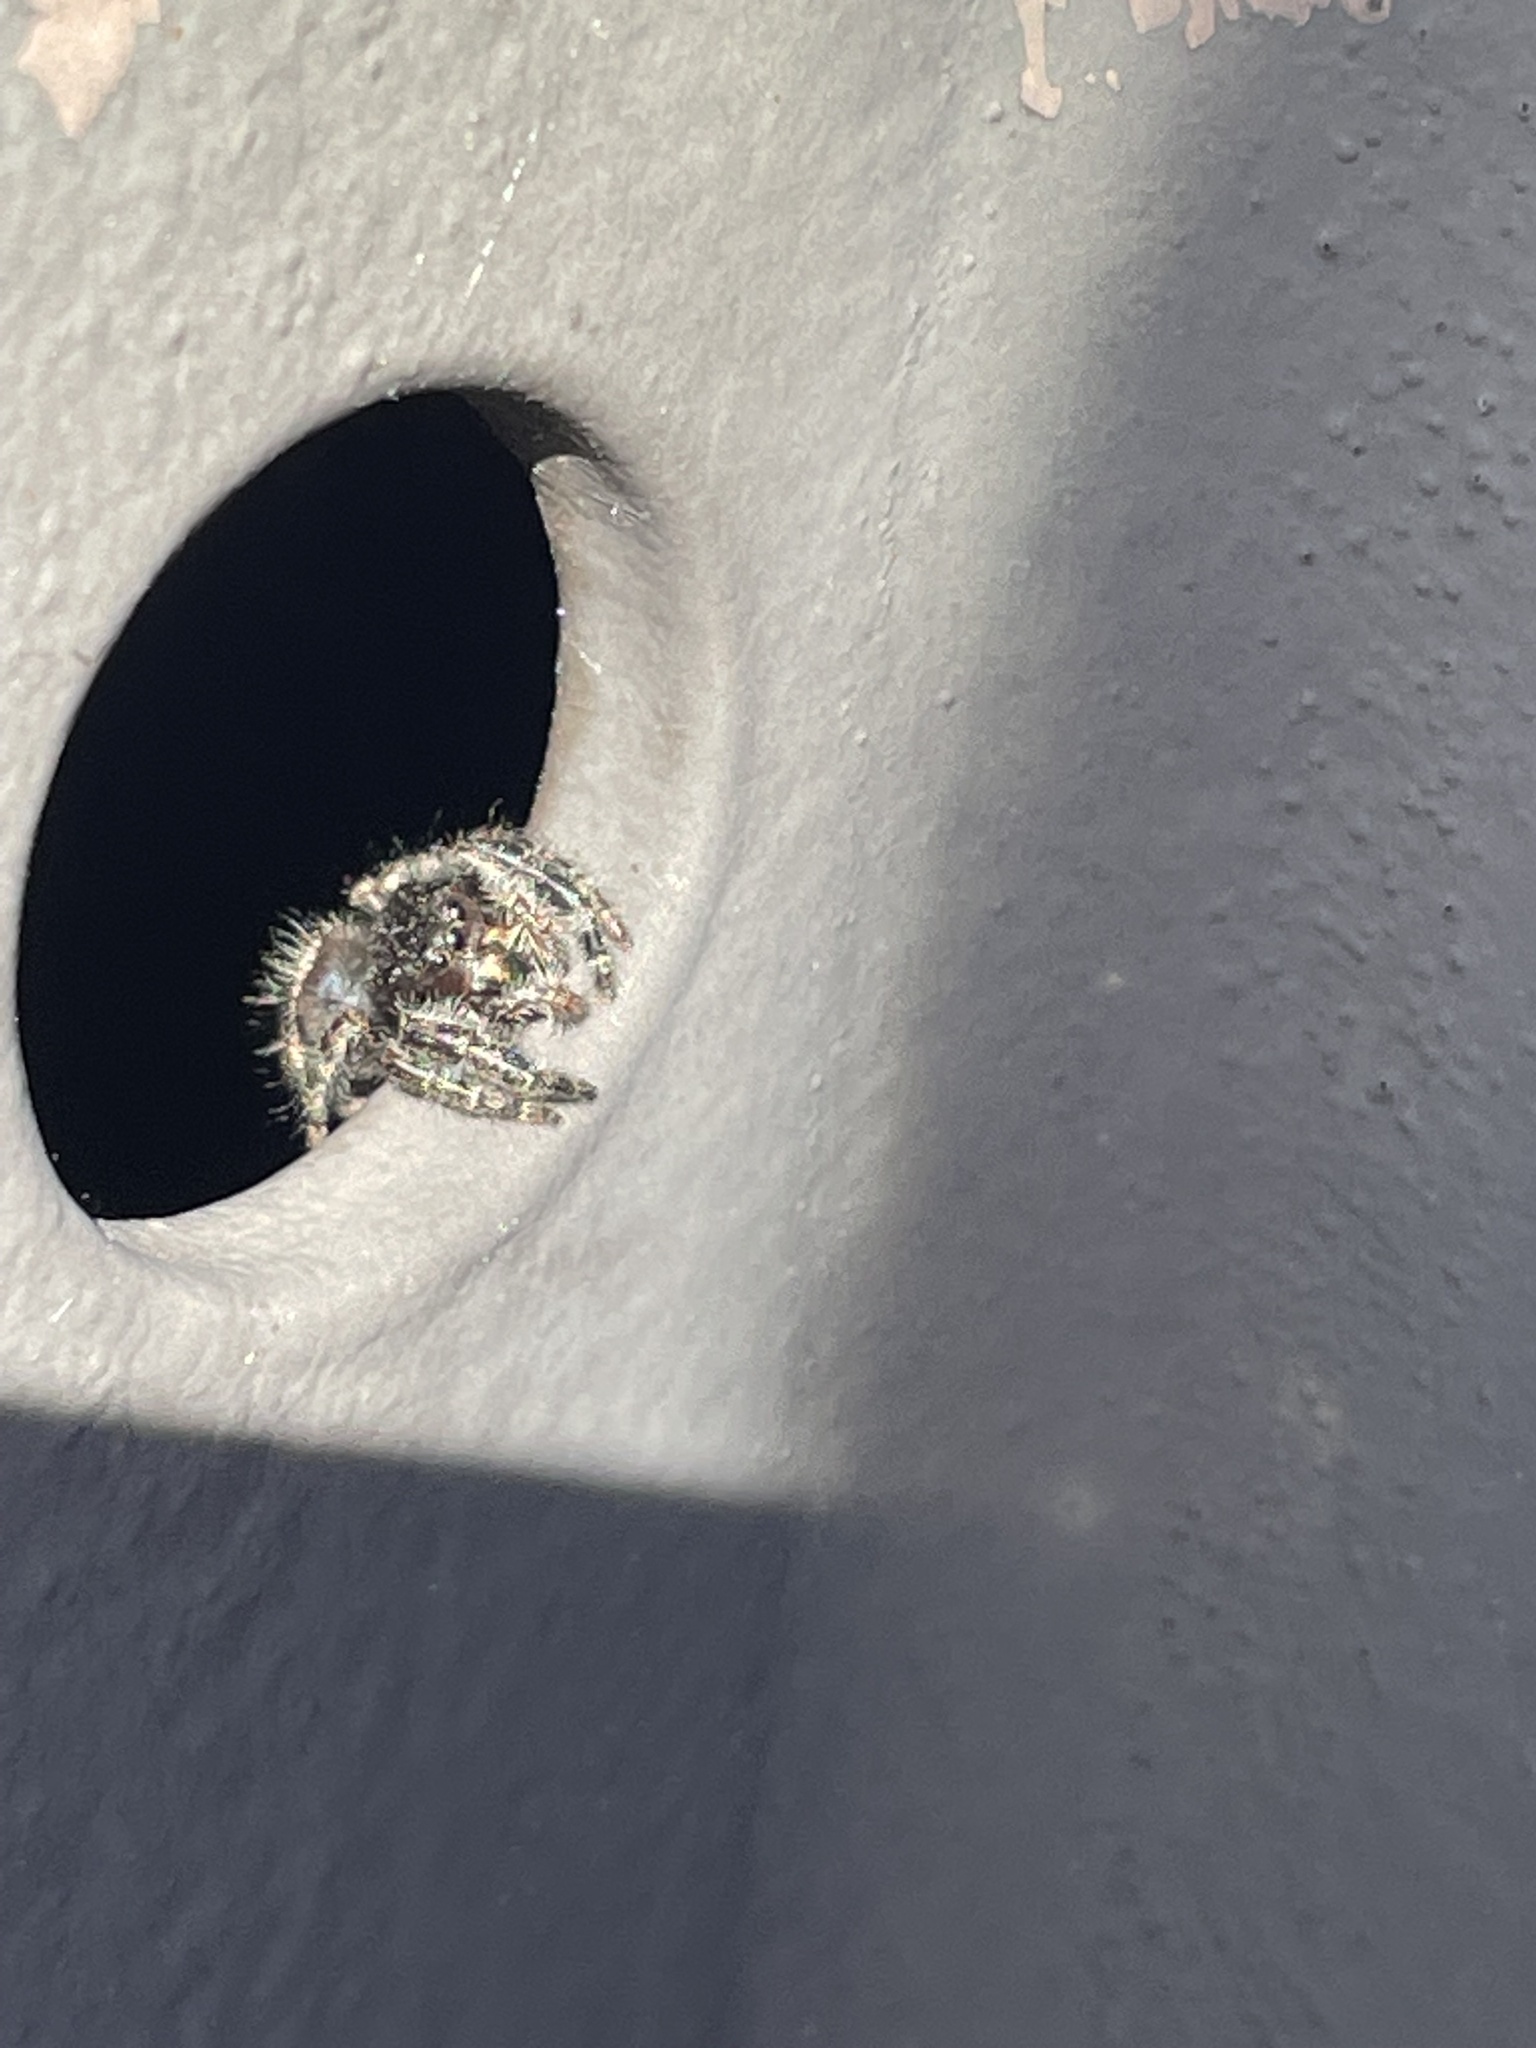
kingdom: Animalia
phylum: Arthropoda
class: Arachnida
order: Araneae
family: Salticidae
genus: Phidippus
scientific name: Phidippus audax
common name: Bold jumper
